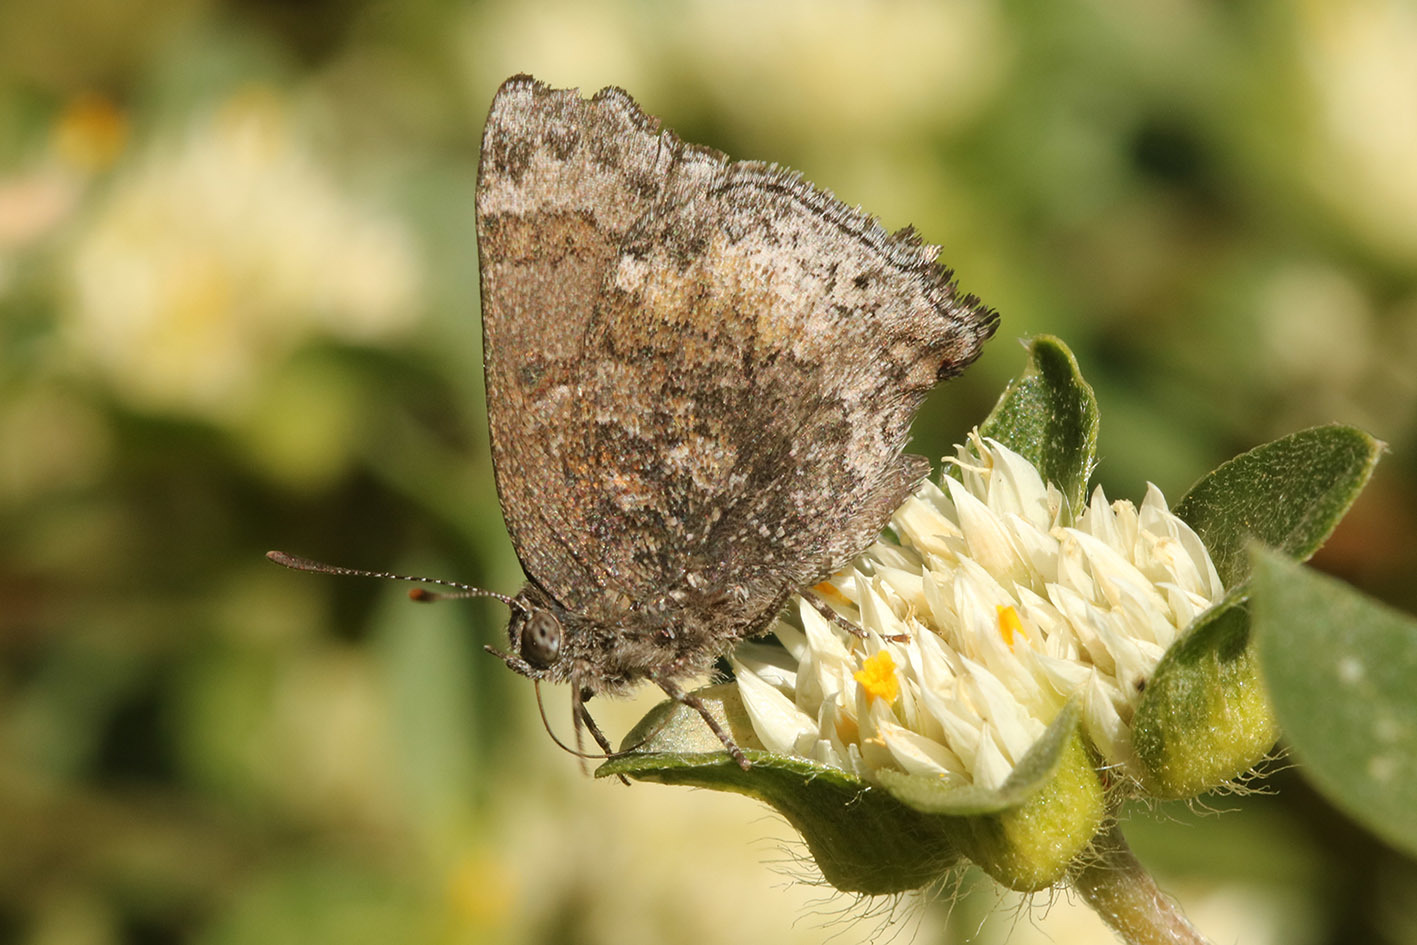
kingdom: Animalia
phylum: Arthropoda
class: Insecta
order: Lepidoptera
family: Lycaenidae
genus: Thereus
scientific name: Thereus
